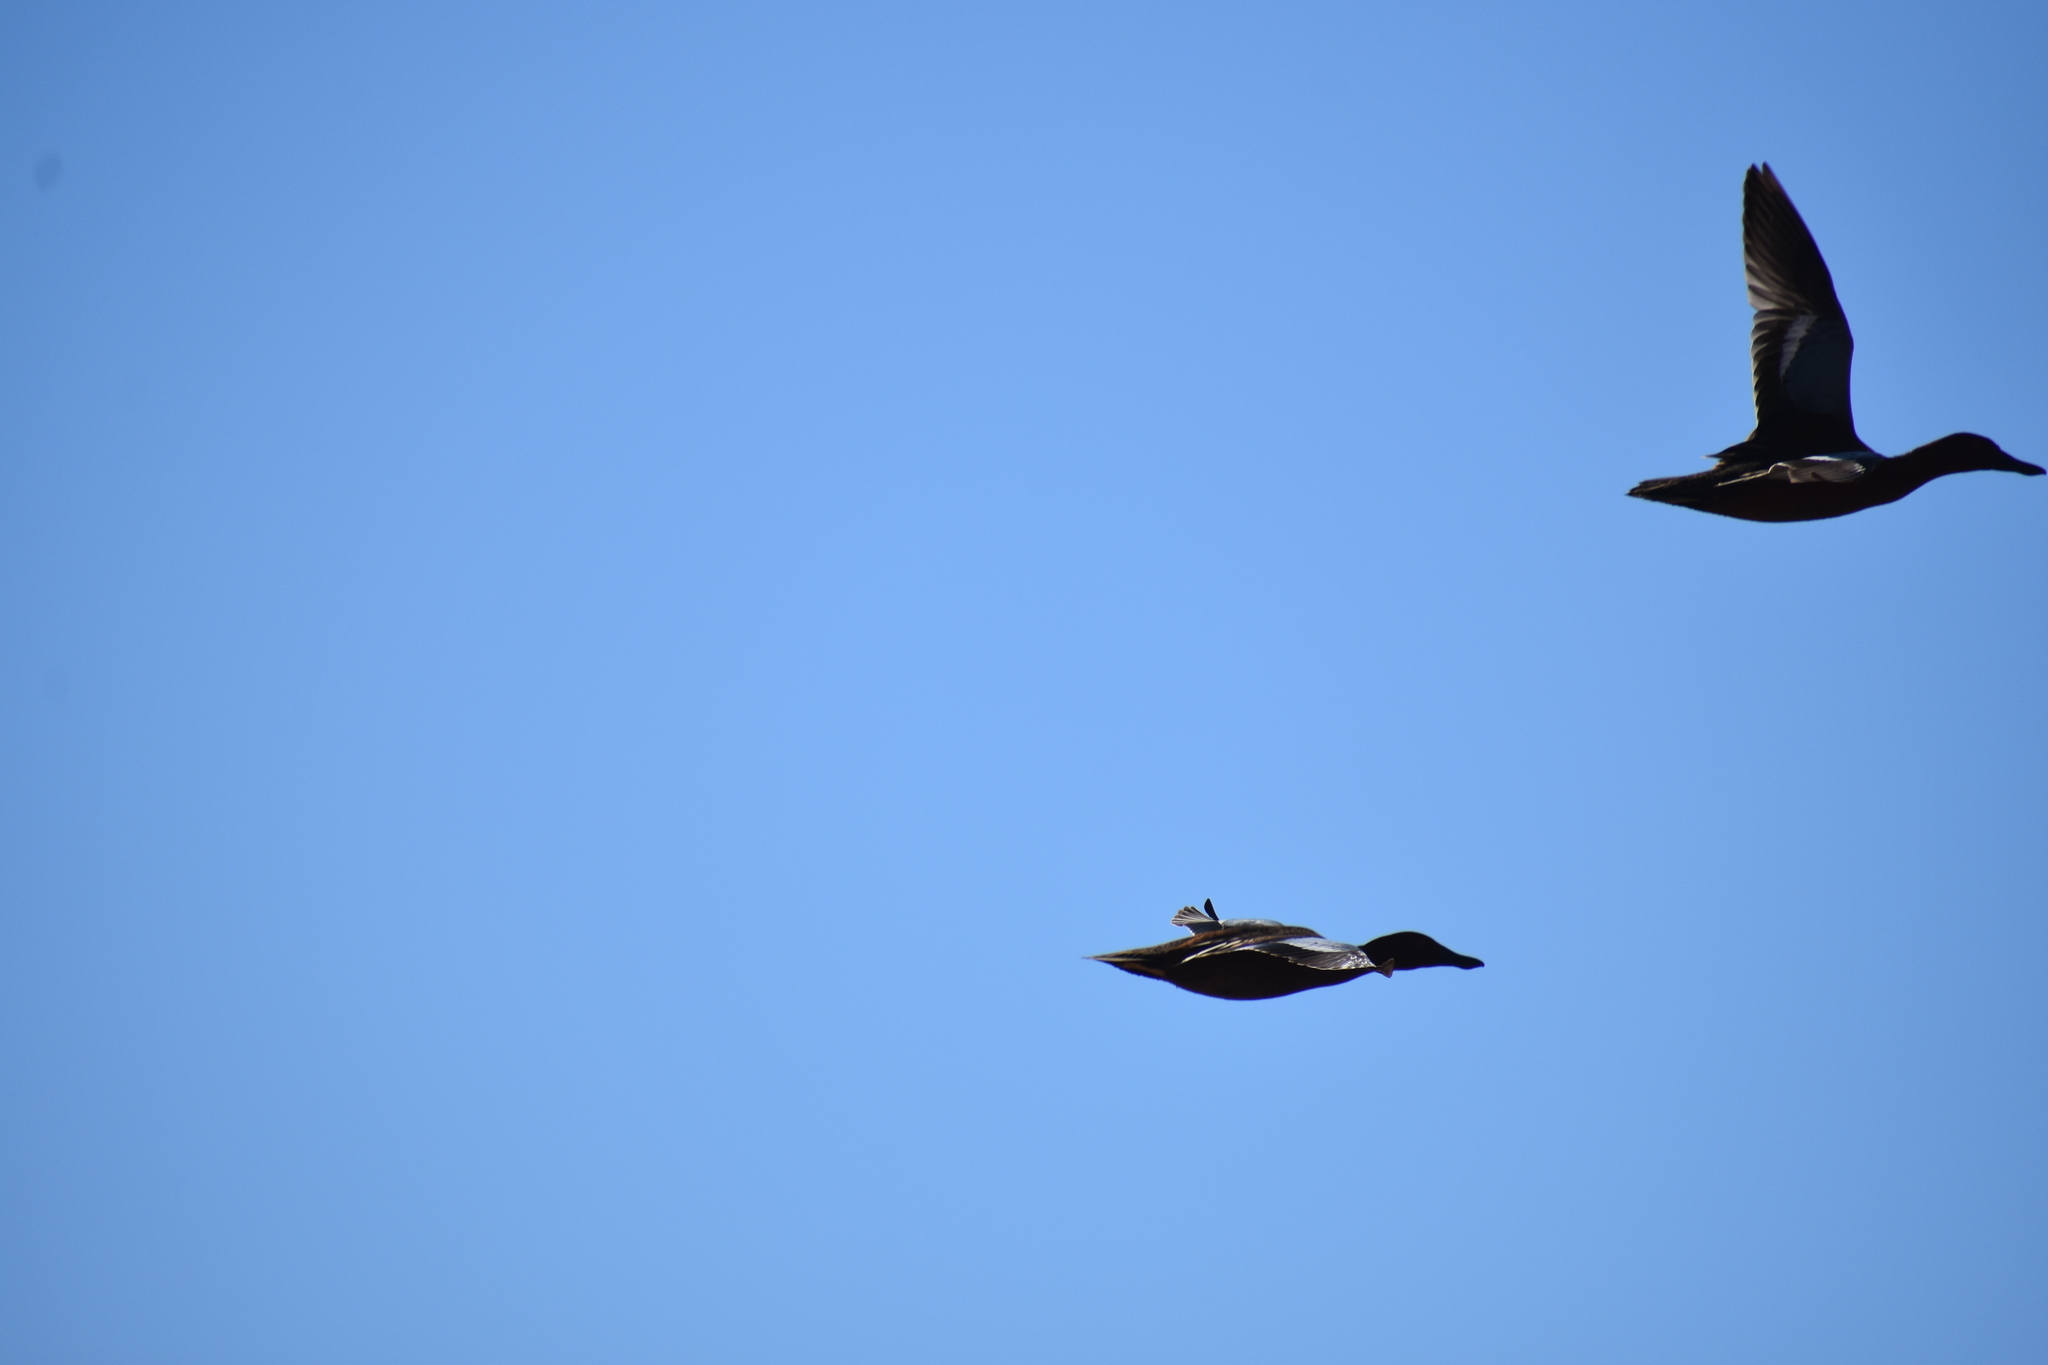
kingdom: Animalia
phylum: Chordata
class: Aves
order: Anseriformes
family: Anatidae
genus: Spatula
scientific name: Spatula cyanoptera
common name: Cinnamon teal
